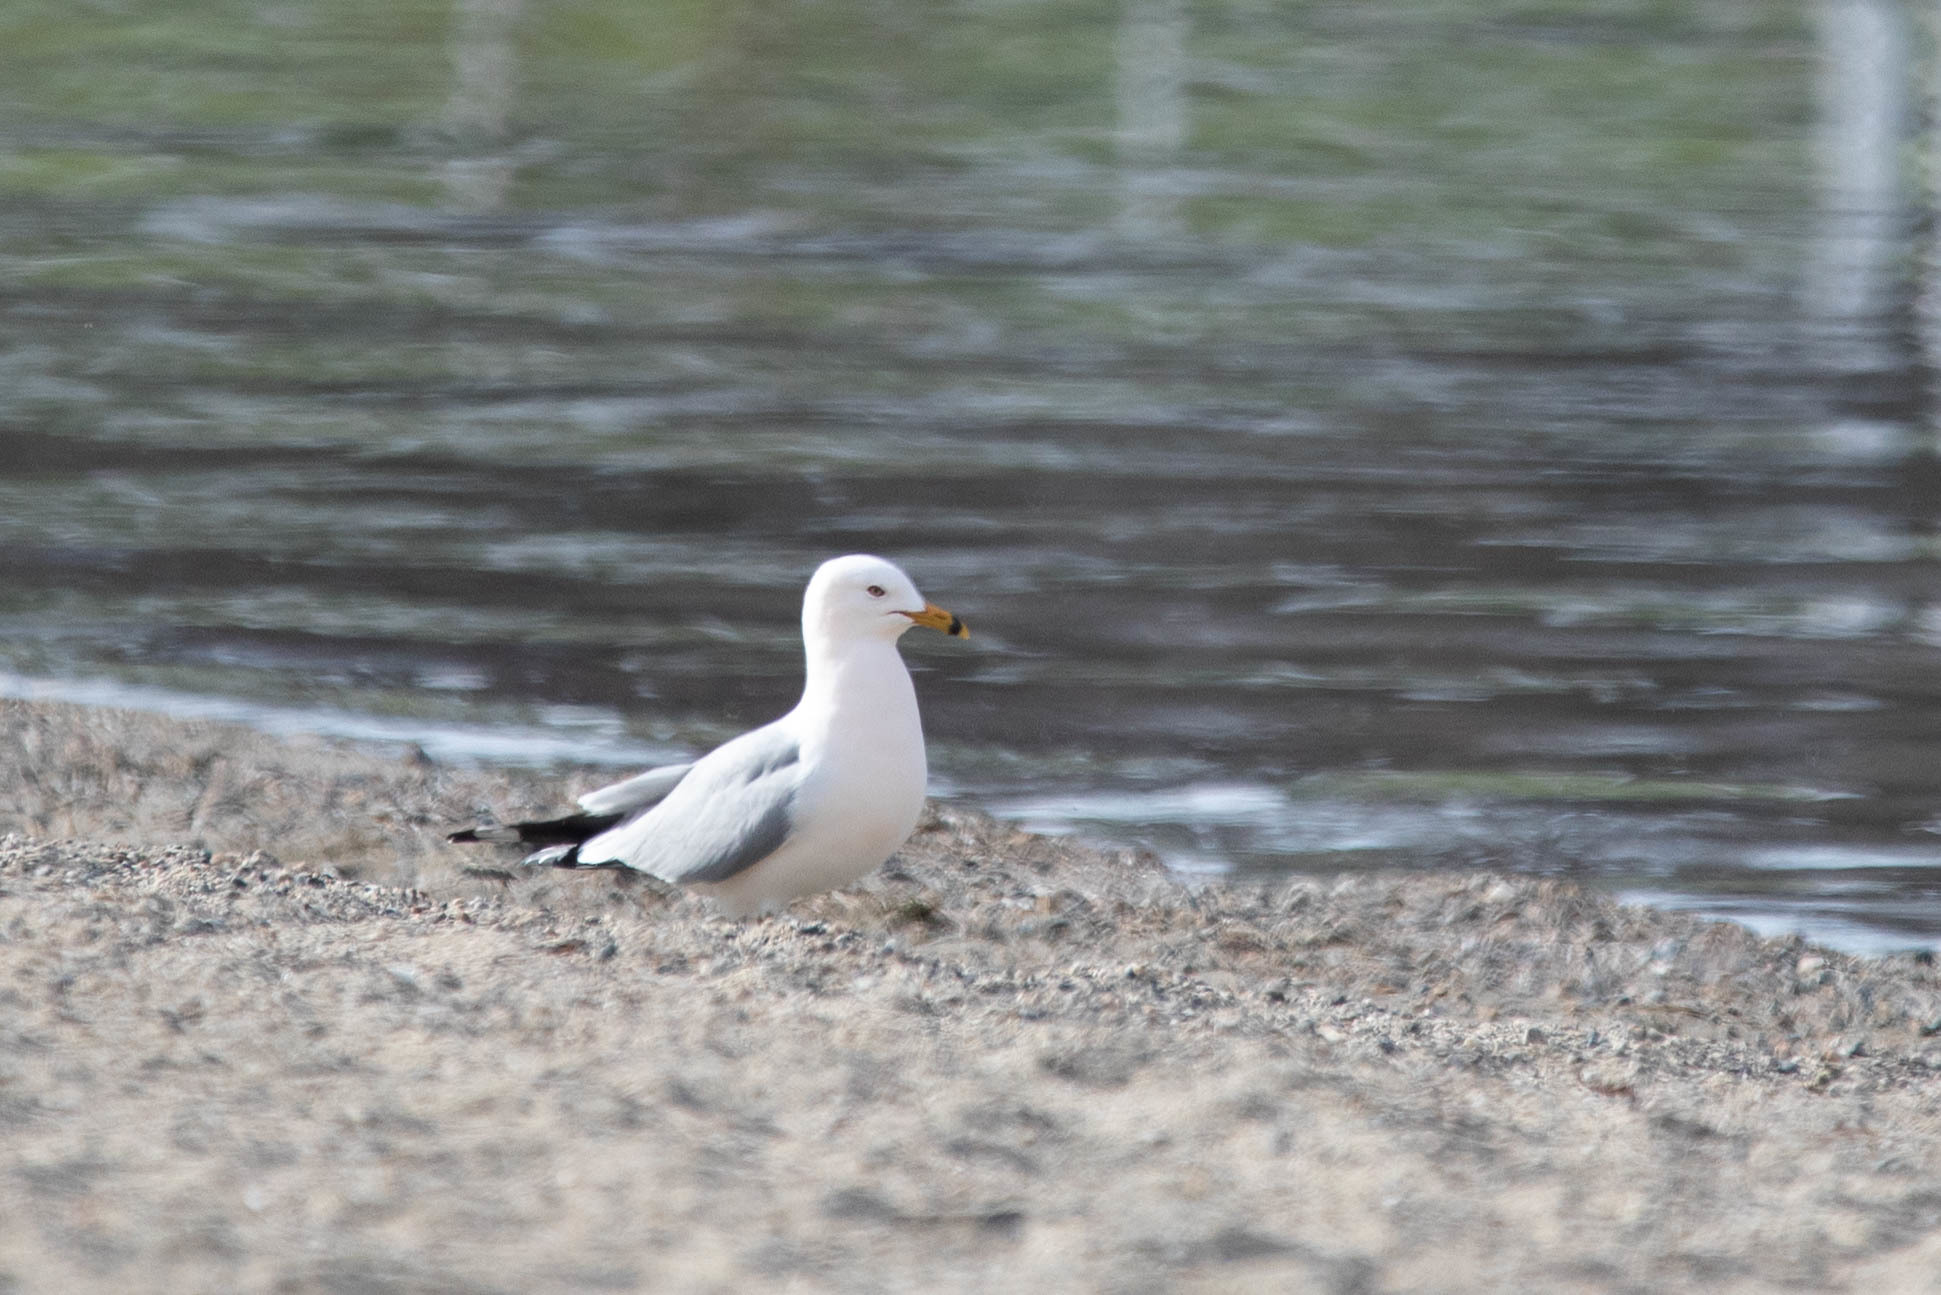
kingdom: Animalia
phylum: Chordata
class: Aves
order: Charadriiformes
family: Laridae
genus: Larus
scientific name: Larus delawarensis
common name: Ring-billed gull
